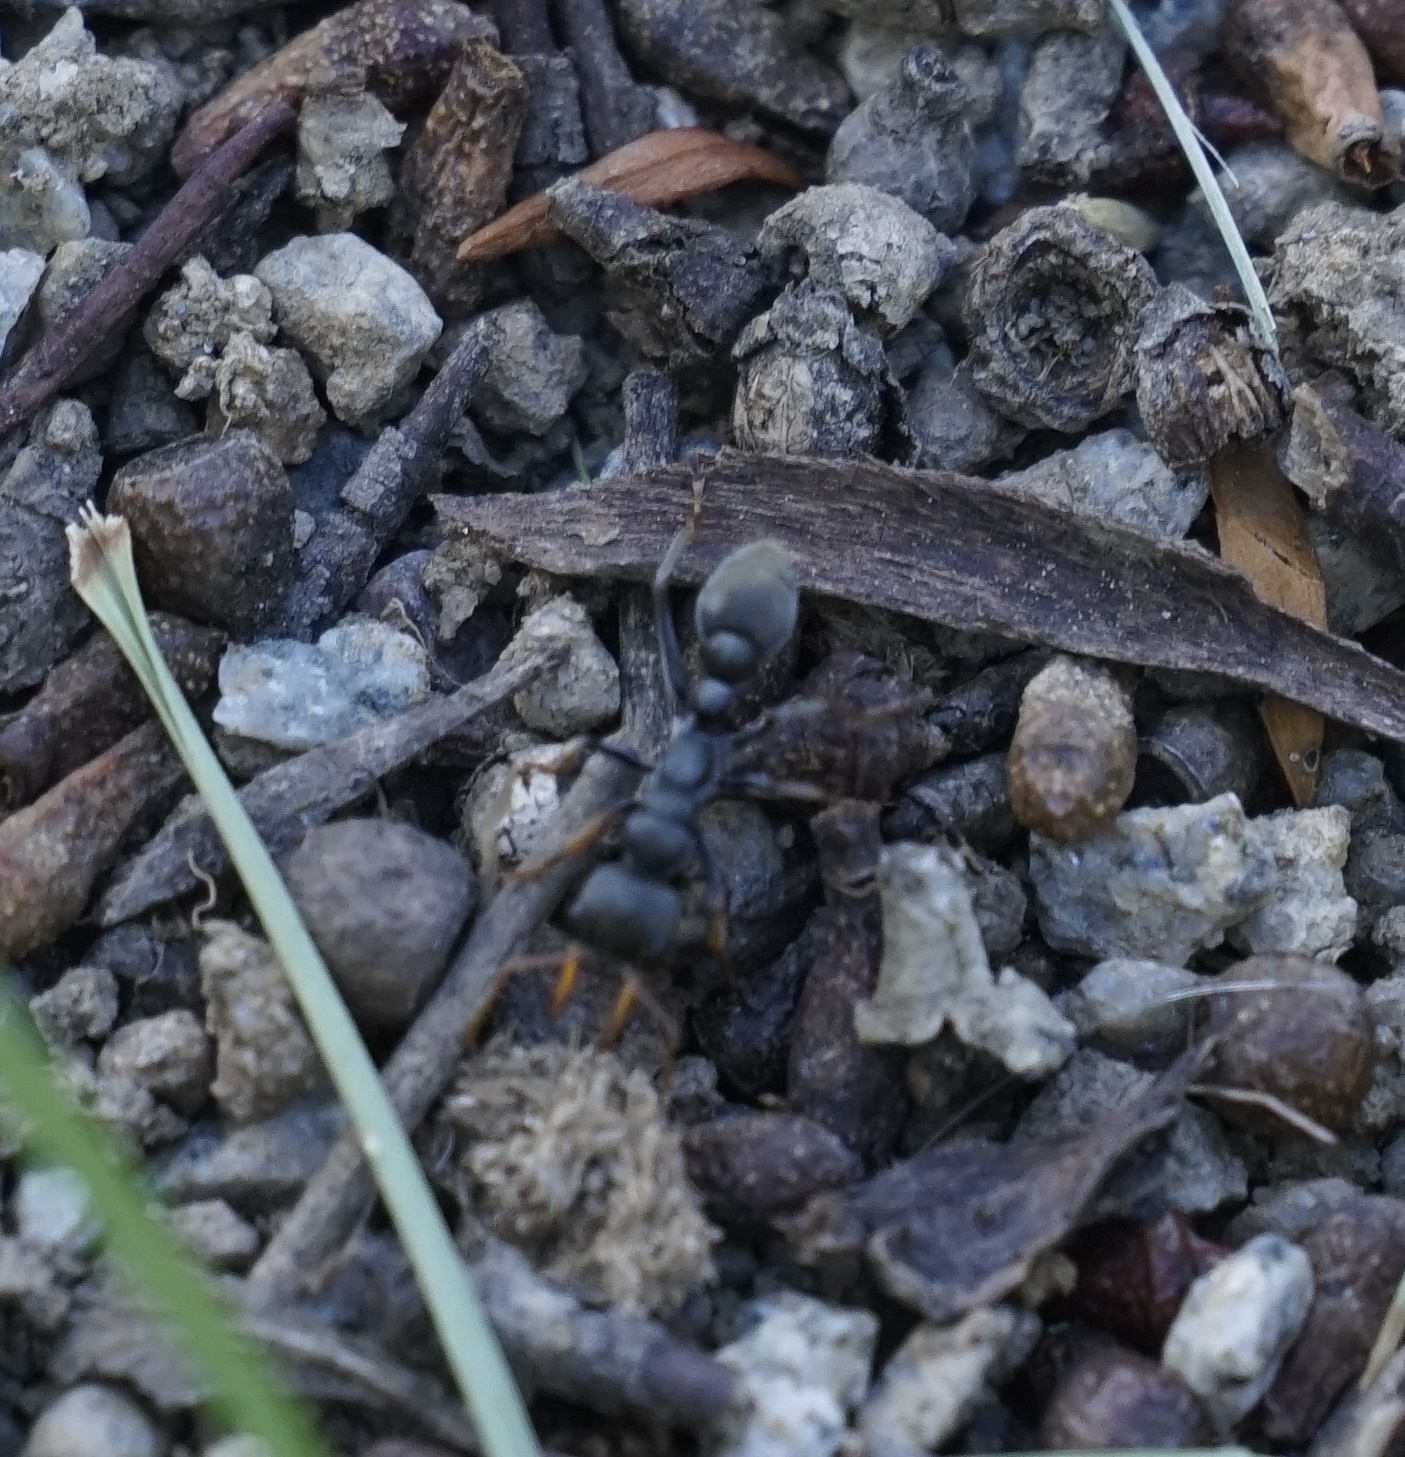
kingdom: Animalia
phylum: Arthropoda
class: Insecta
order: Hymenoptera
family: Formicidae
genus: Myrmecia
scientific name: Myrmecia pilosula
